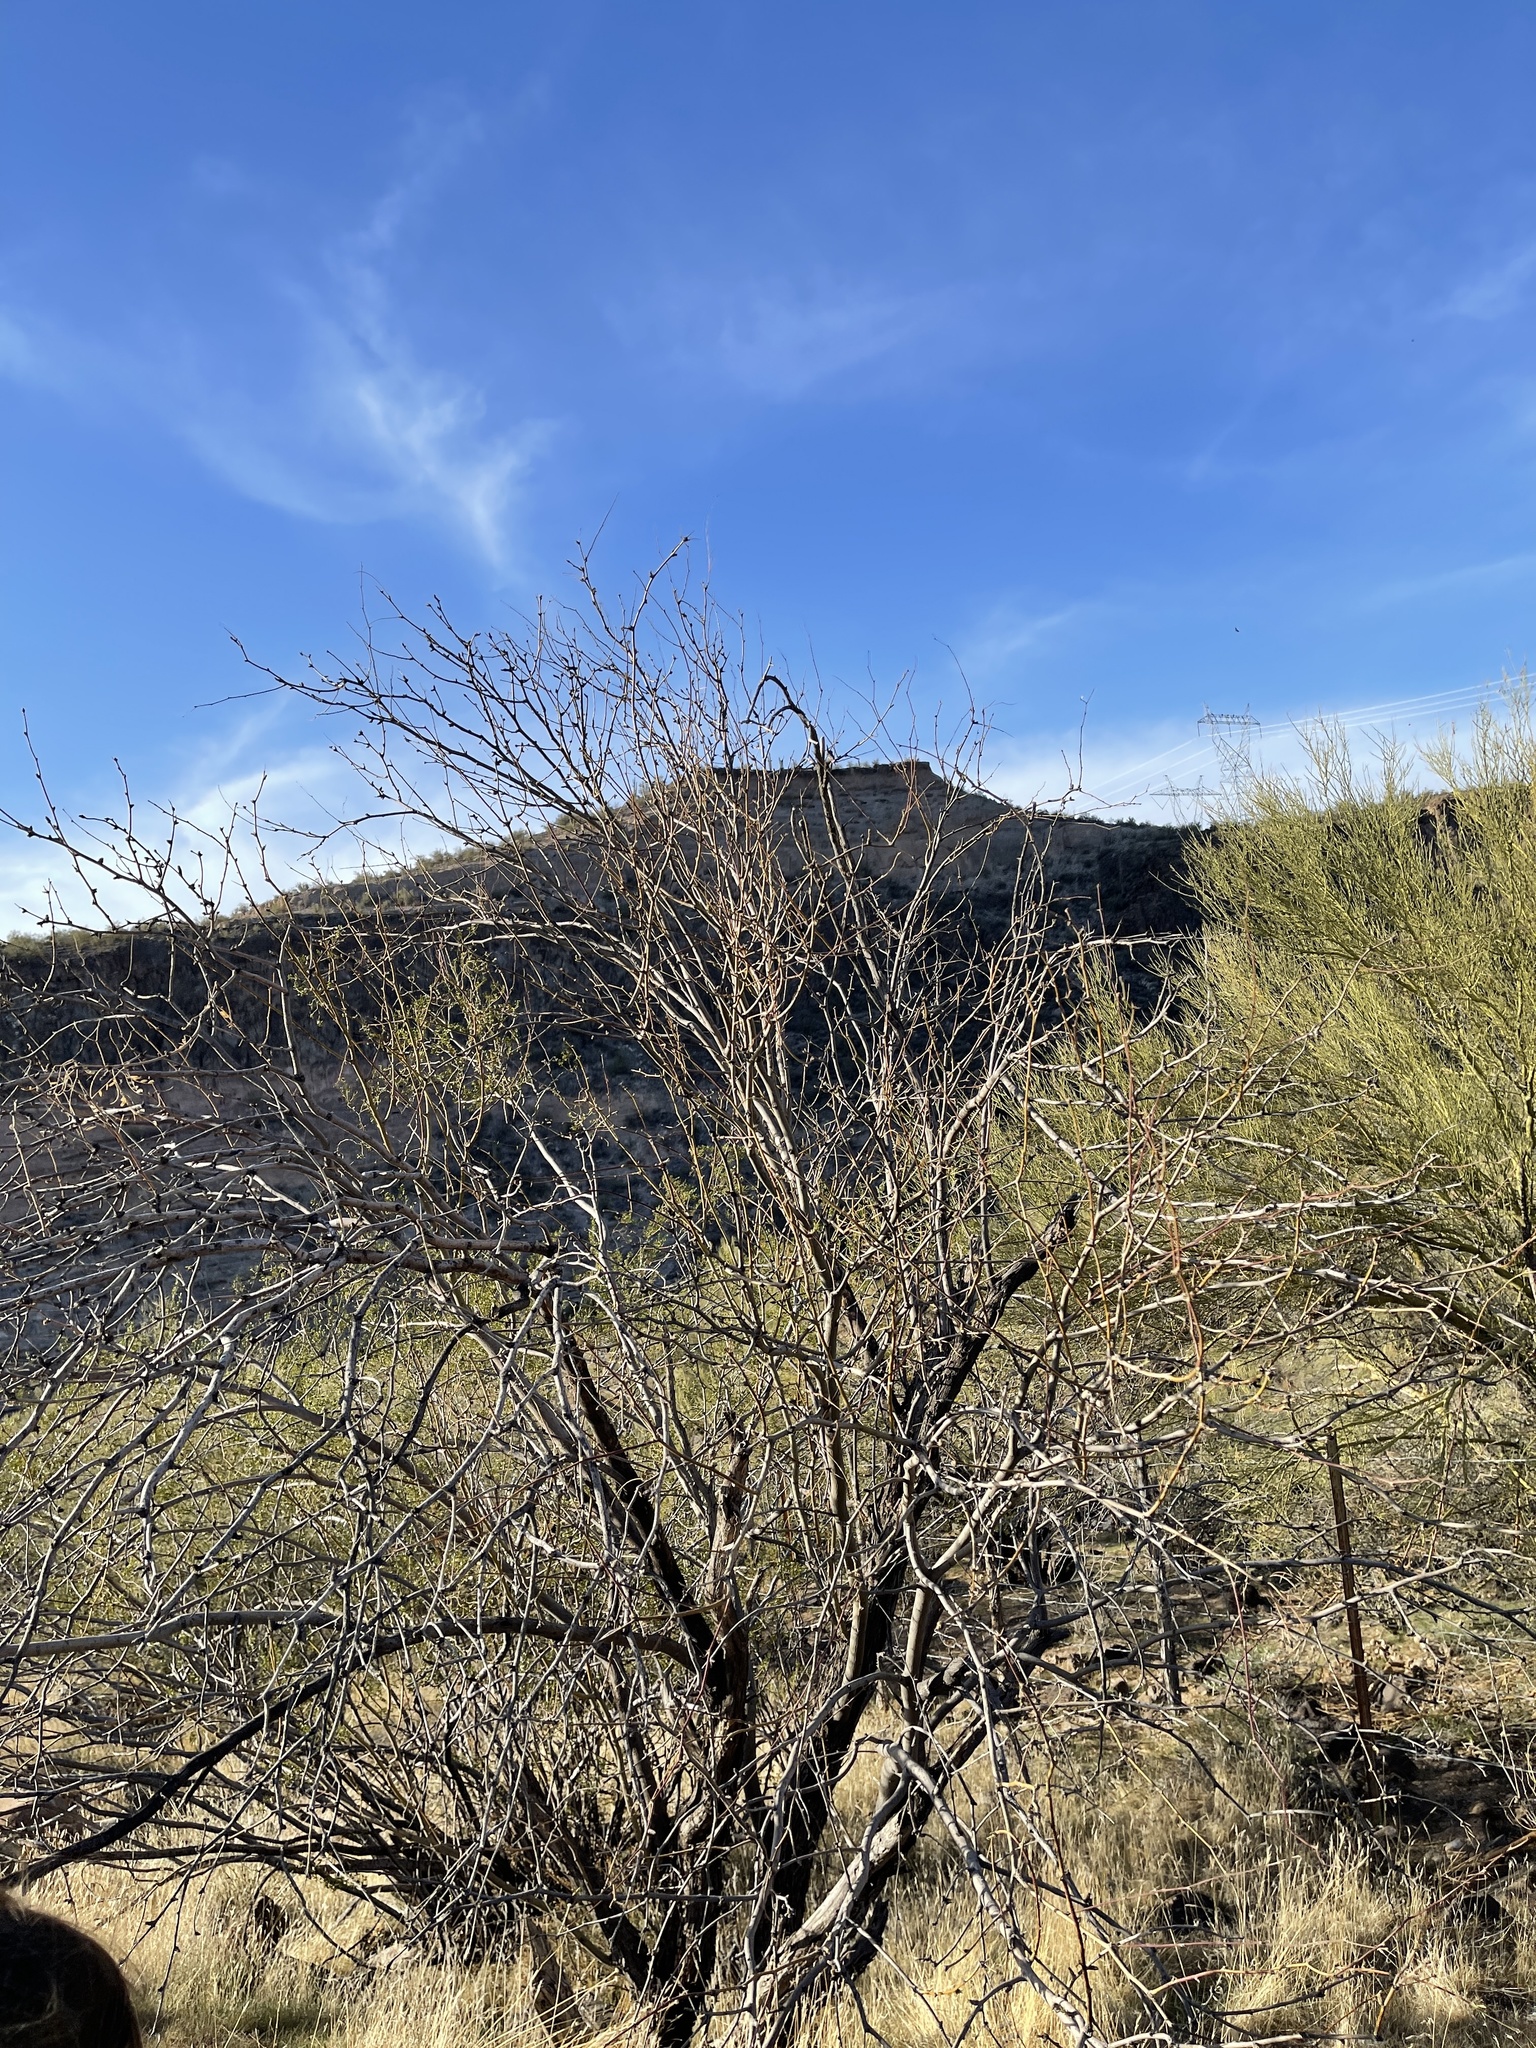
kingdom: Plantae
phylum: Tracheophyta
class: Magnoliopsida
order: Fabales
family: Fabaceae
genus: Prosopis
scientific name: Prosopis glandulosa
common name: Honey mesquite
